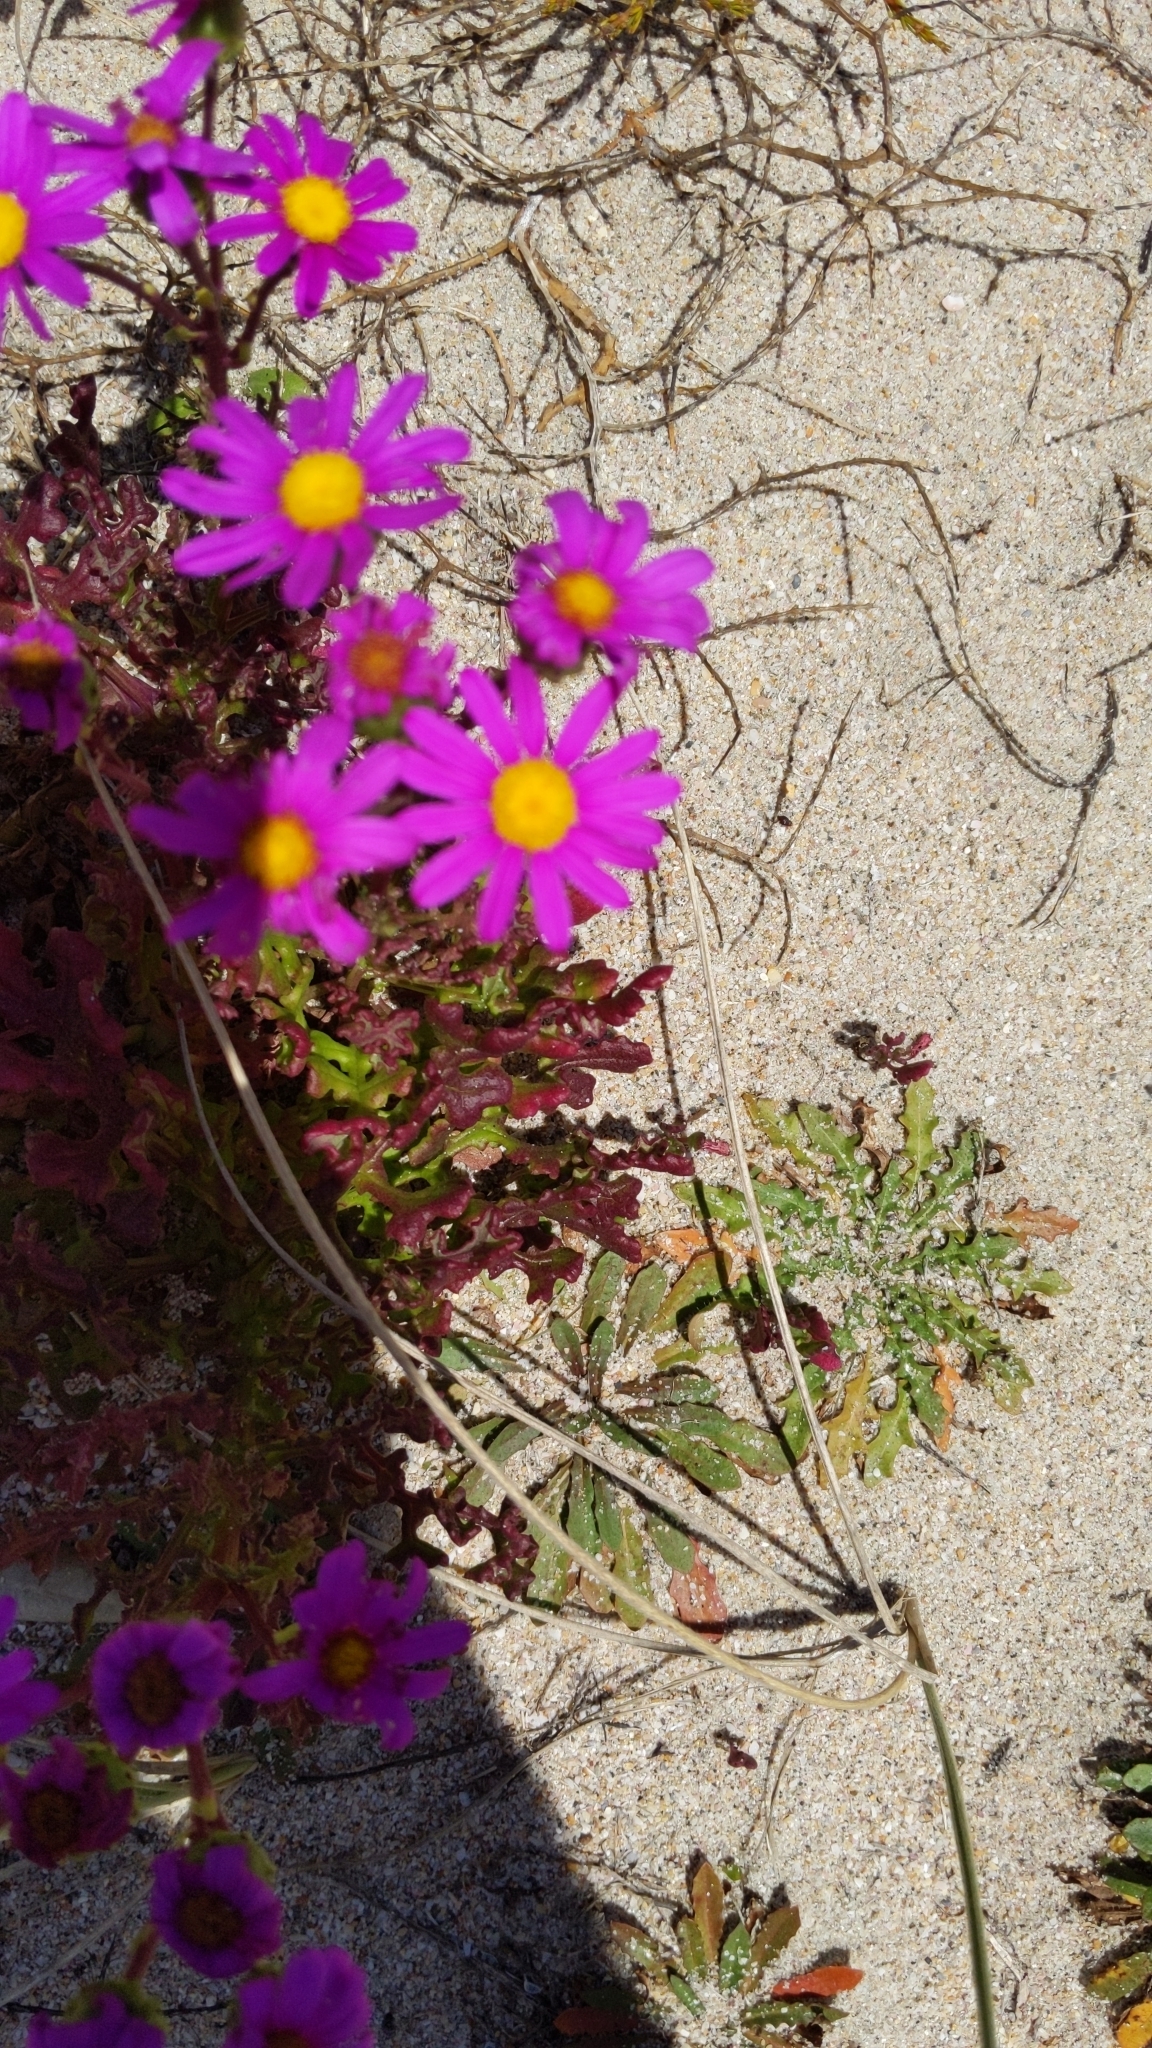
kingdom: Plantae
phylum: Tracheophyta
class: Magnoliopsida
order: Asterales
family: Asteraceae
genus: Senecio
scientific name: Senecio elegans
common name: Purple groundsel
